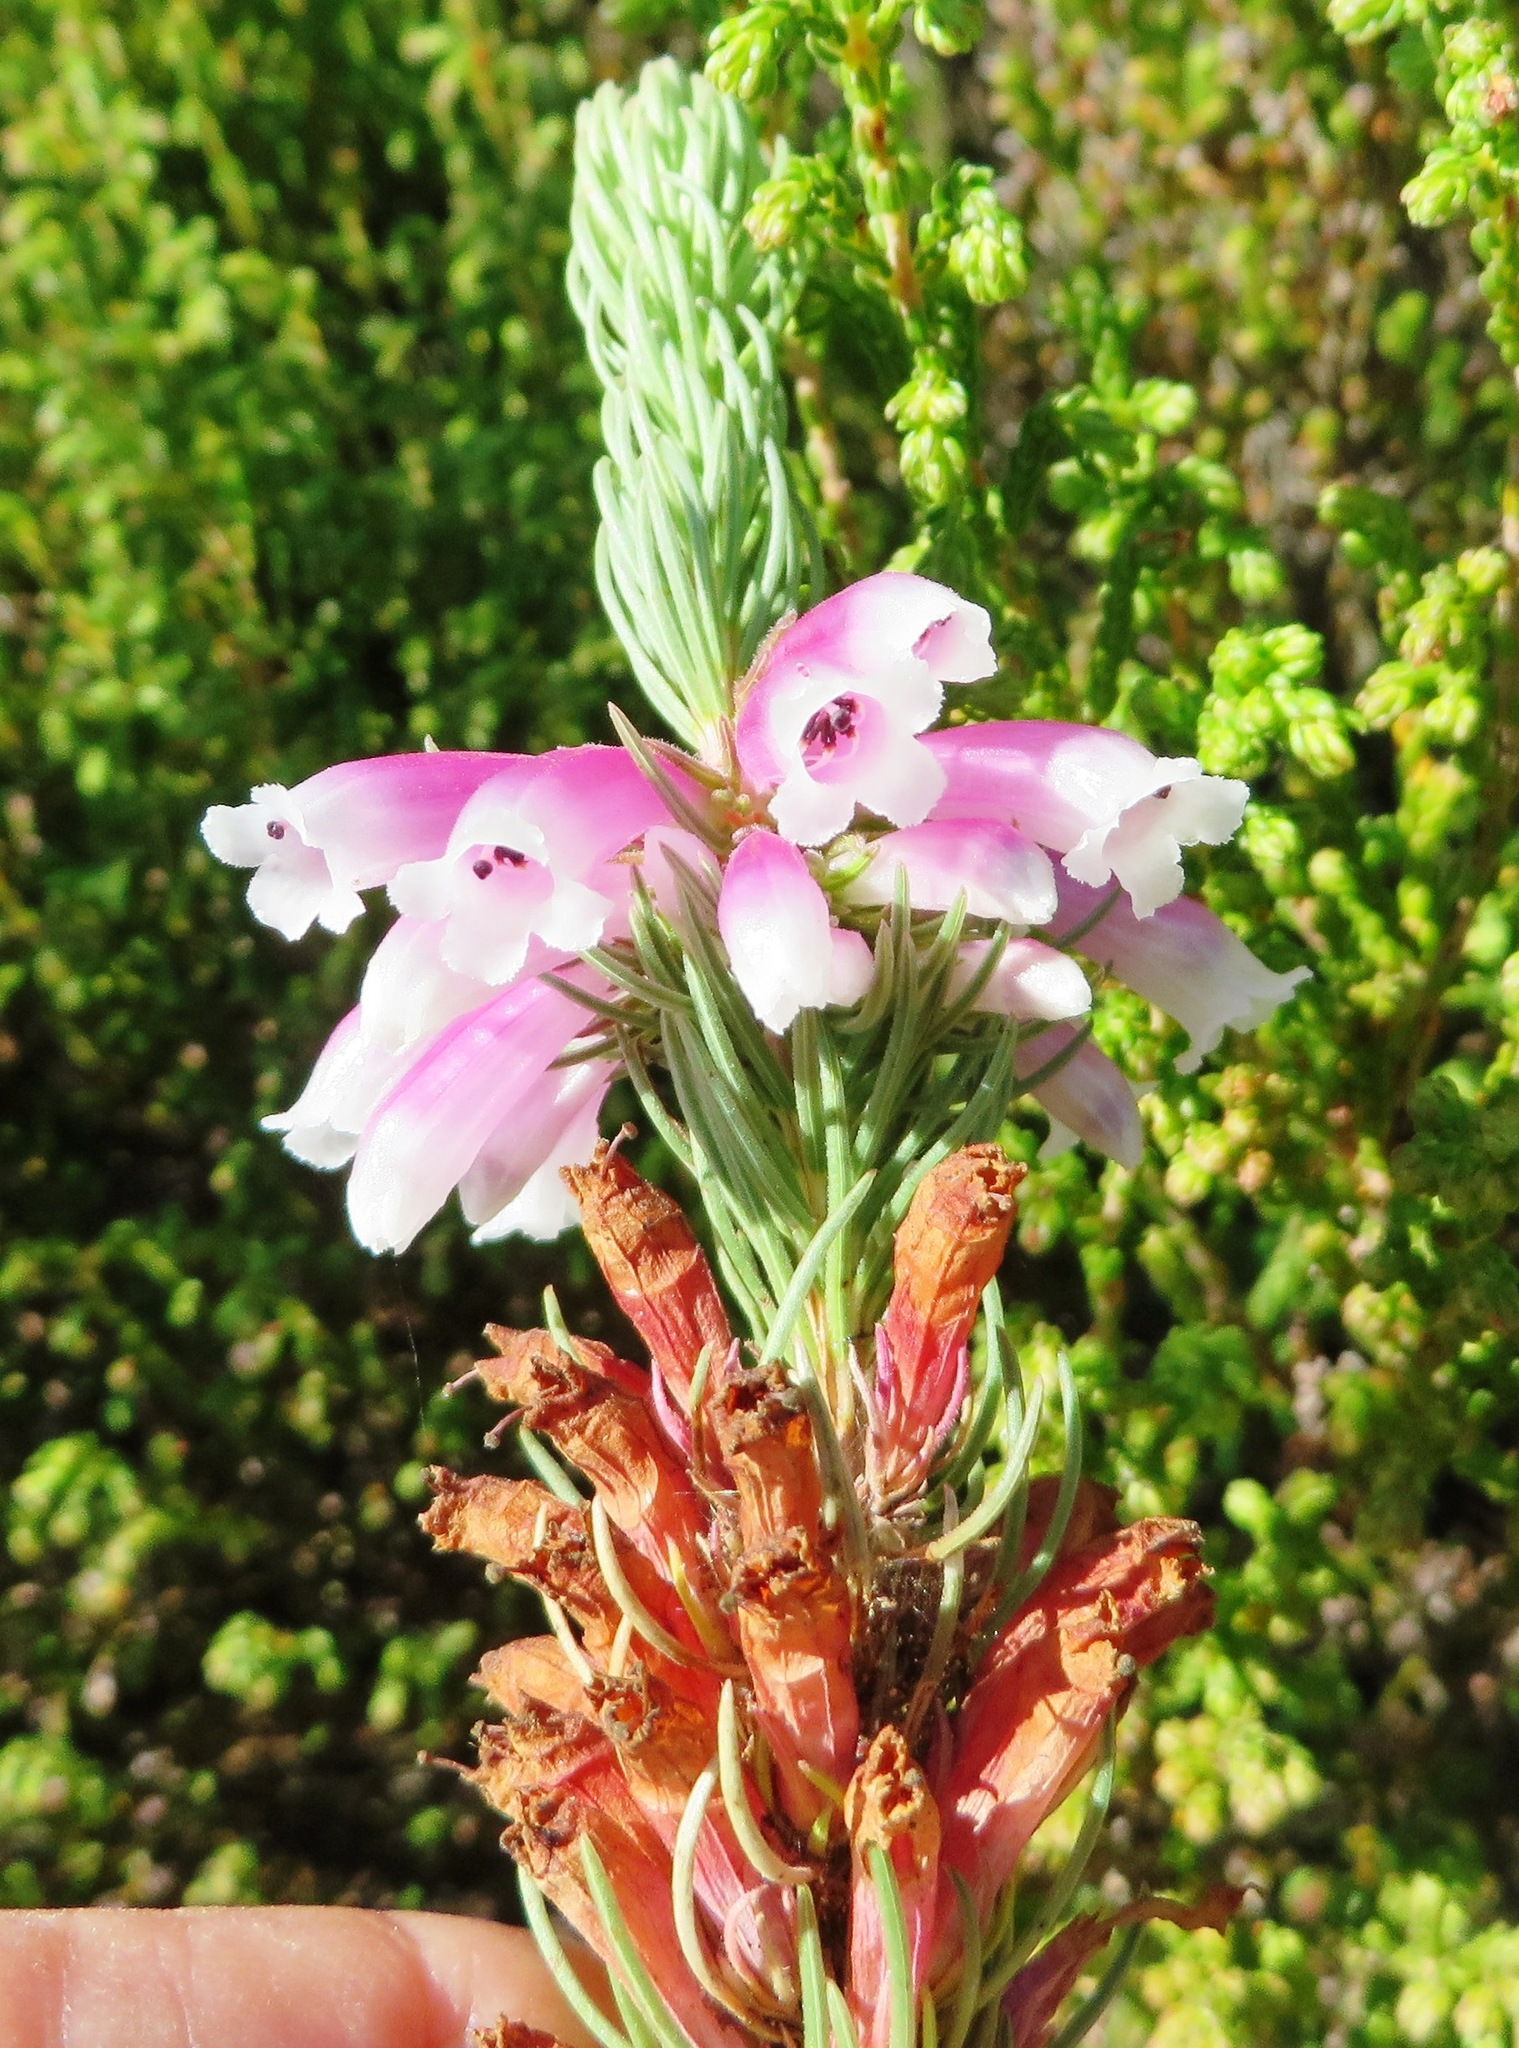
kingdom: Plantae
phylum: Tracheophyta
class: Magnoliopsida
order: Ericales
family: Ericaceae
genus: Erica
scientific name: Erica viscaria
